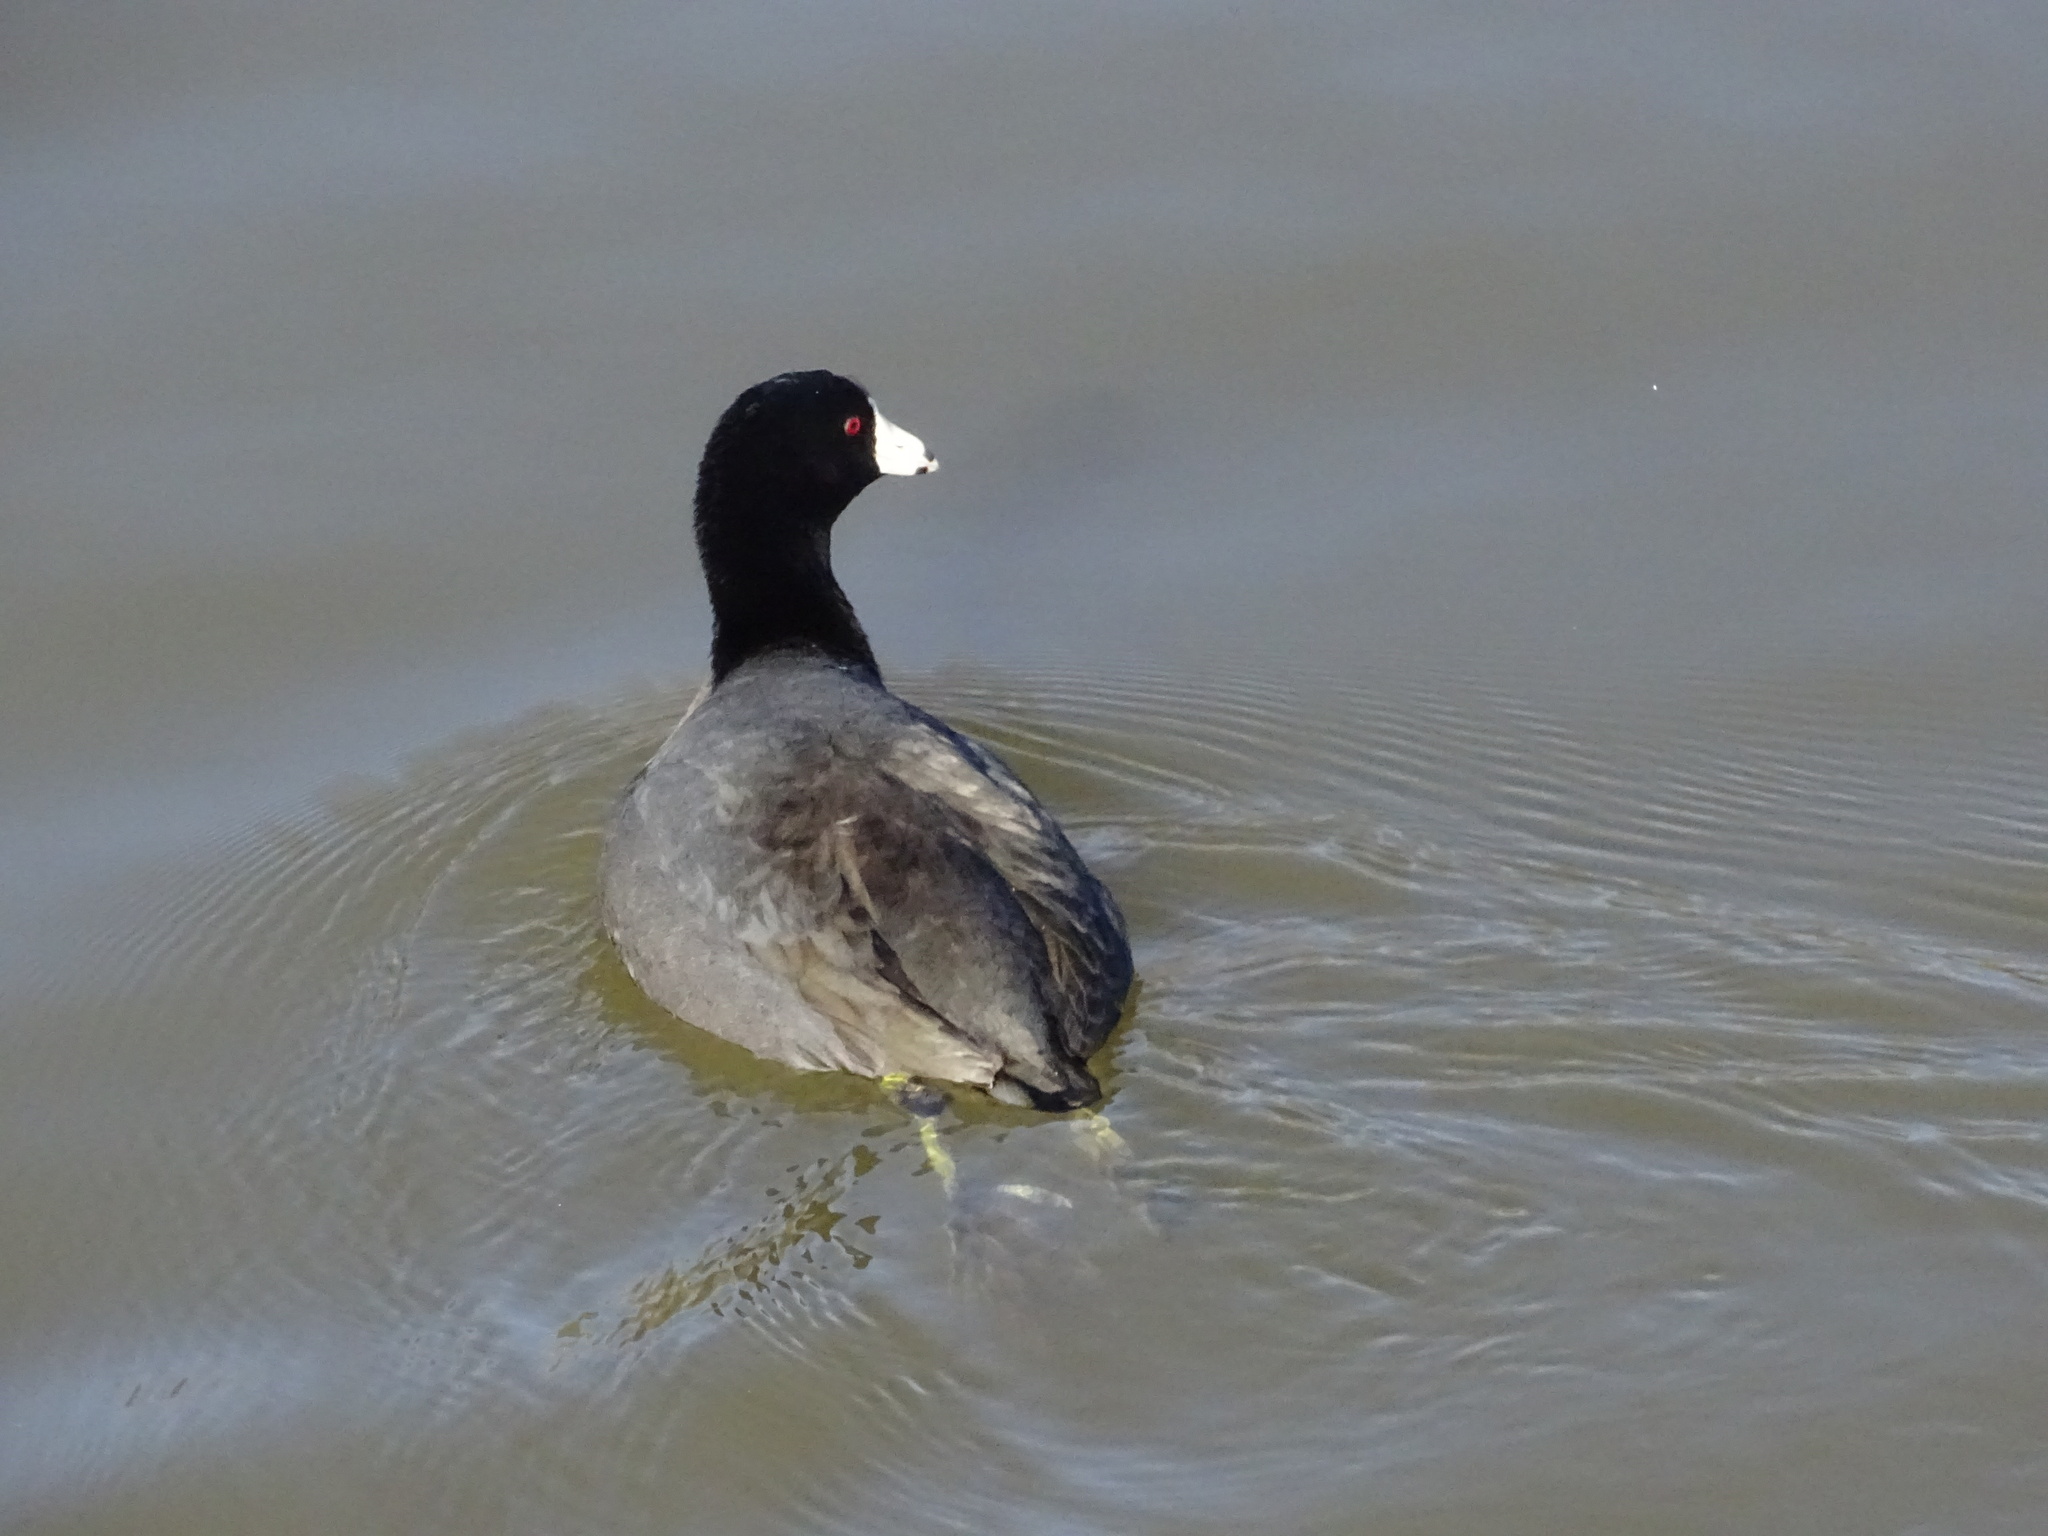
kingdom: Animalia
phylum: Chordata
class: Aves
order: Gruiformes
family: Rallidae
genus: Fulica
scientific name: Fulica americana
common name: American coot
